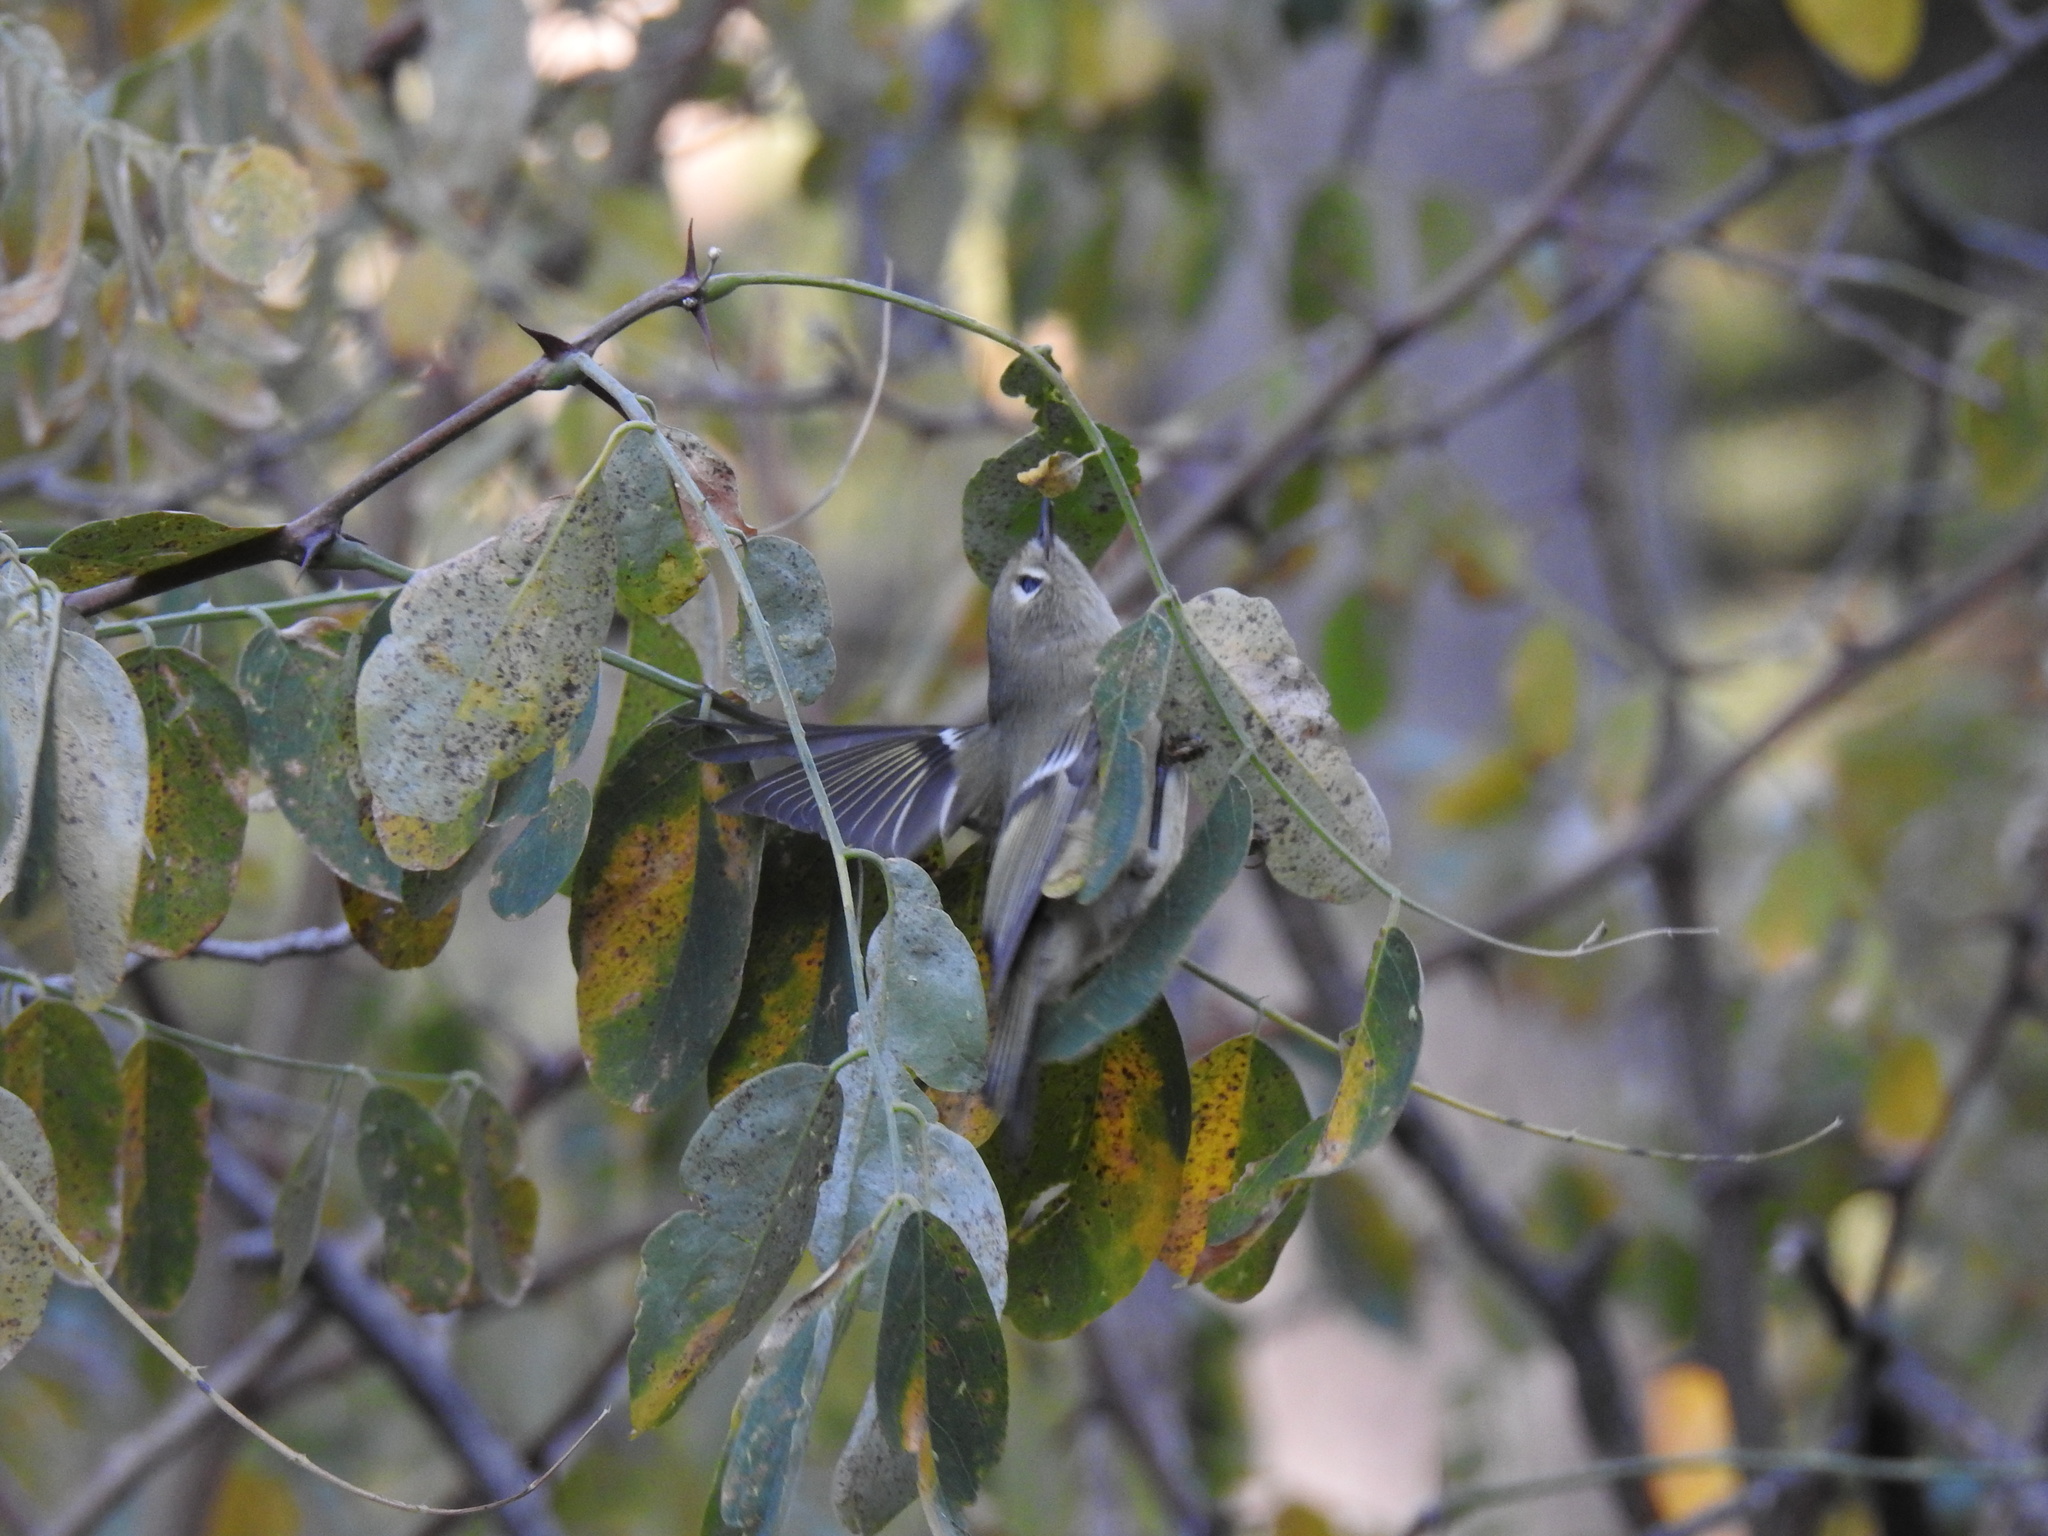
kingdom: Animalia
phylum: Chordata
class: Aves
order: Passeriformes
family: Regulidae
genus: Regulus
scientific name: Regulus calendula
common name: Ruby-crowned kinglet
